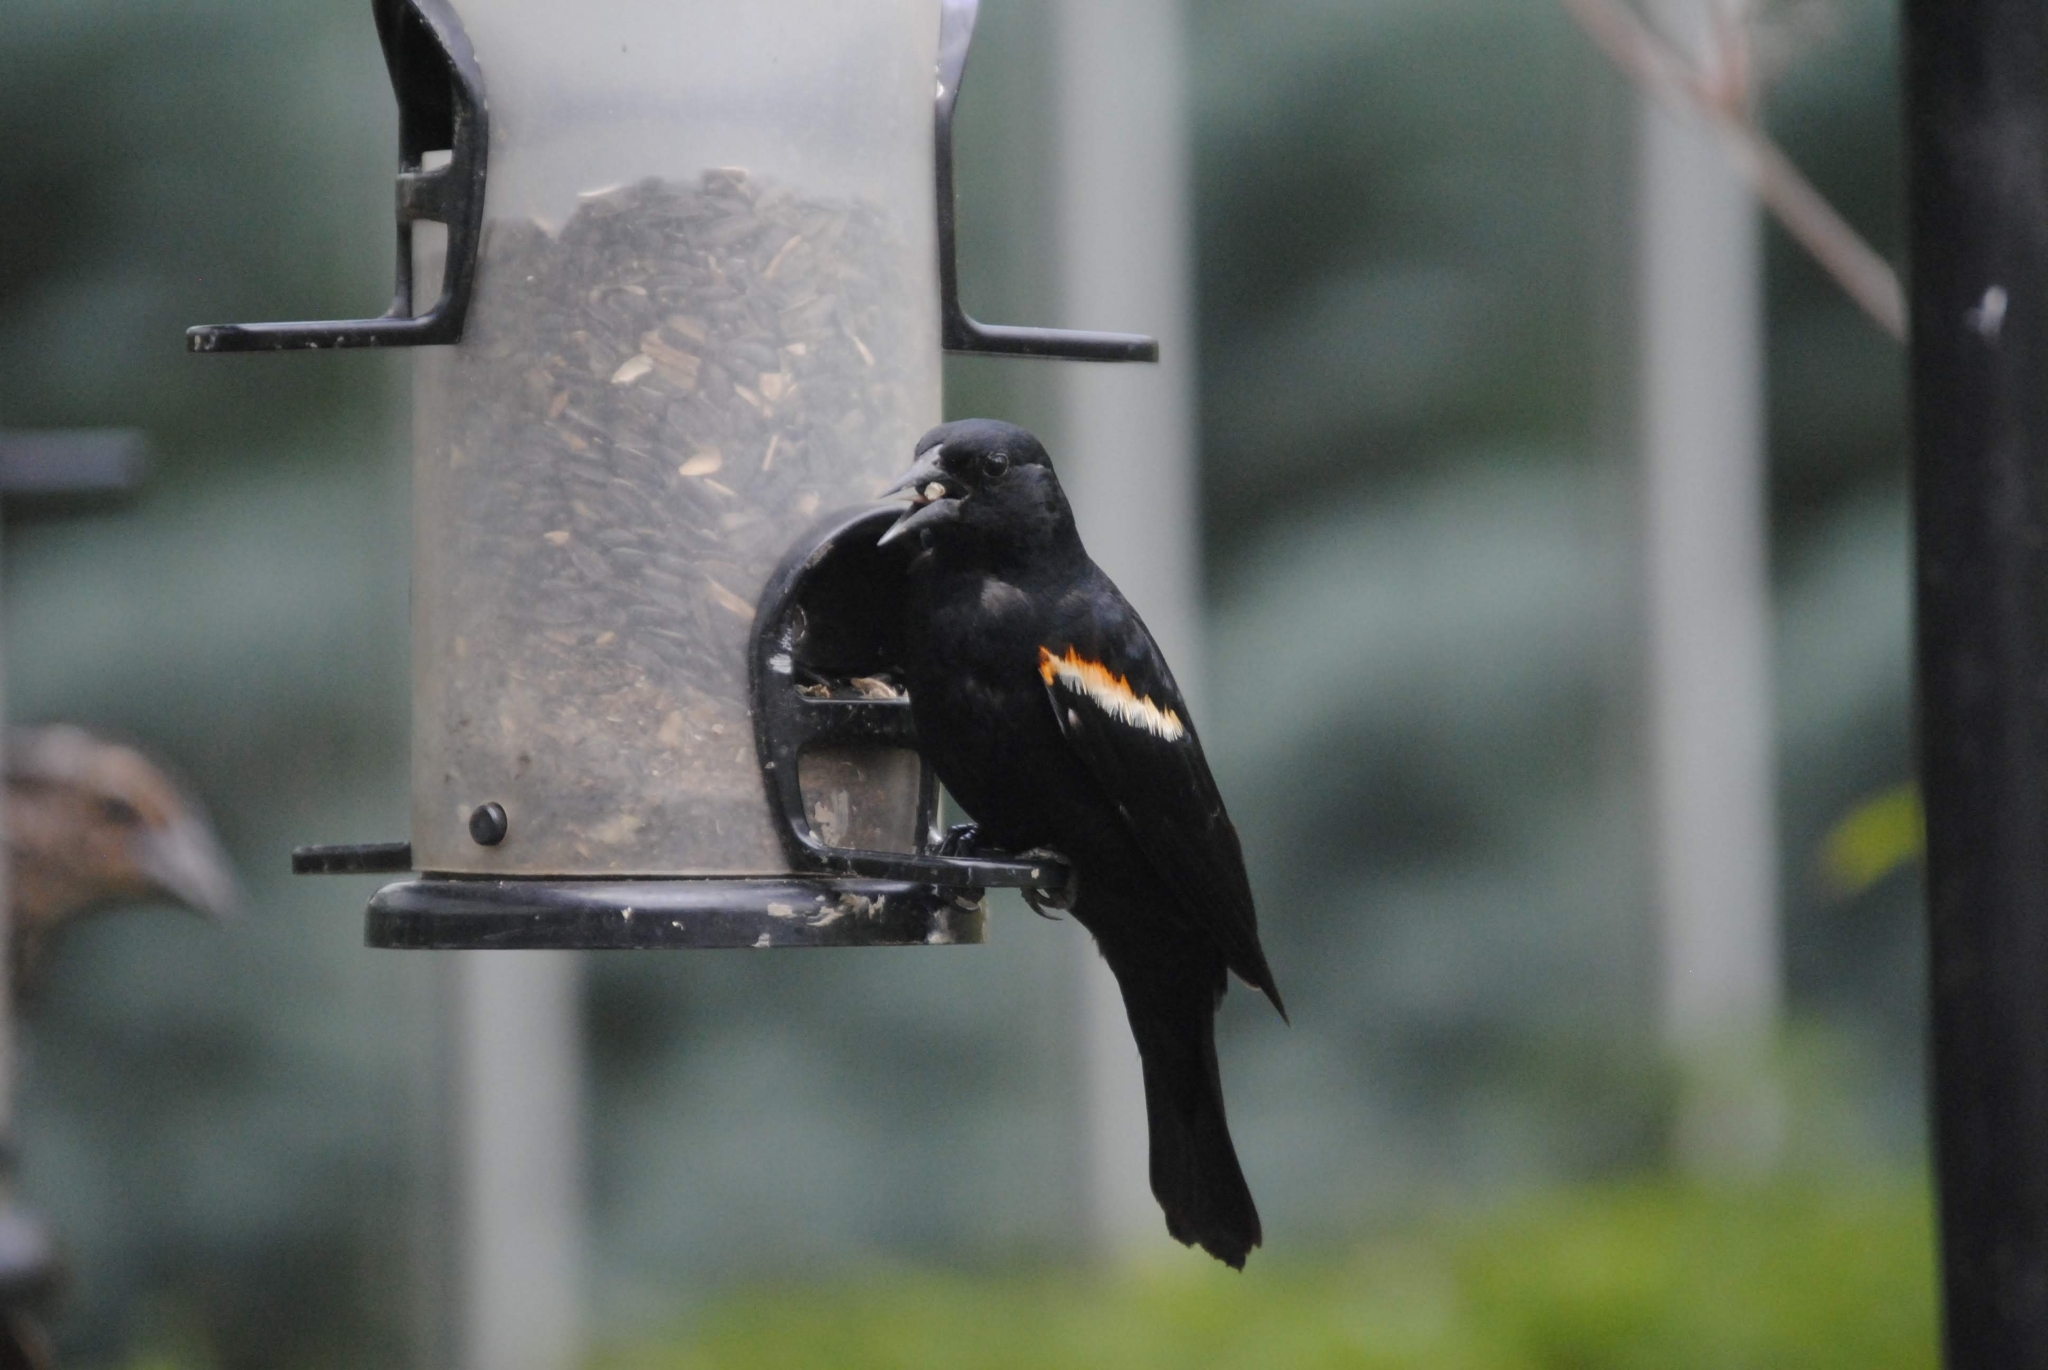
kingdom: Animalia
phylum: Chordata
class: Aves
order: Passeriformes
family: Icteridae
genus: Agelaius
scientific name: Agelaius phoeniceus
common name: Red-winged blackbird
